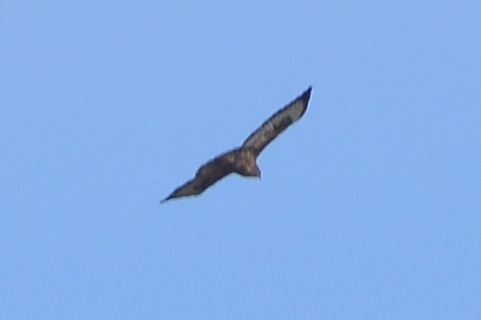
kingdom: Animalia
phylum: Chordata
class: Aves
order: Accipitriformes
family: Accipitridae
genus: Buteo
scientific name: Buteo buteo
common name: Common buzzard
